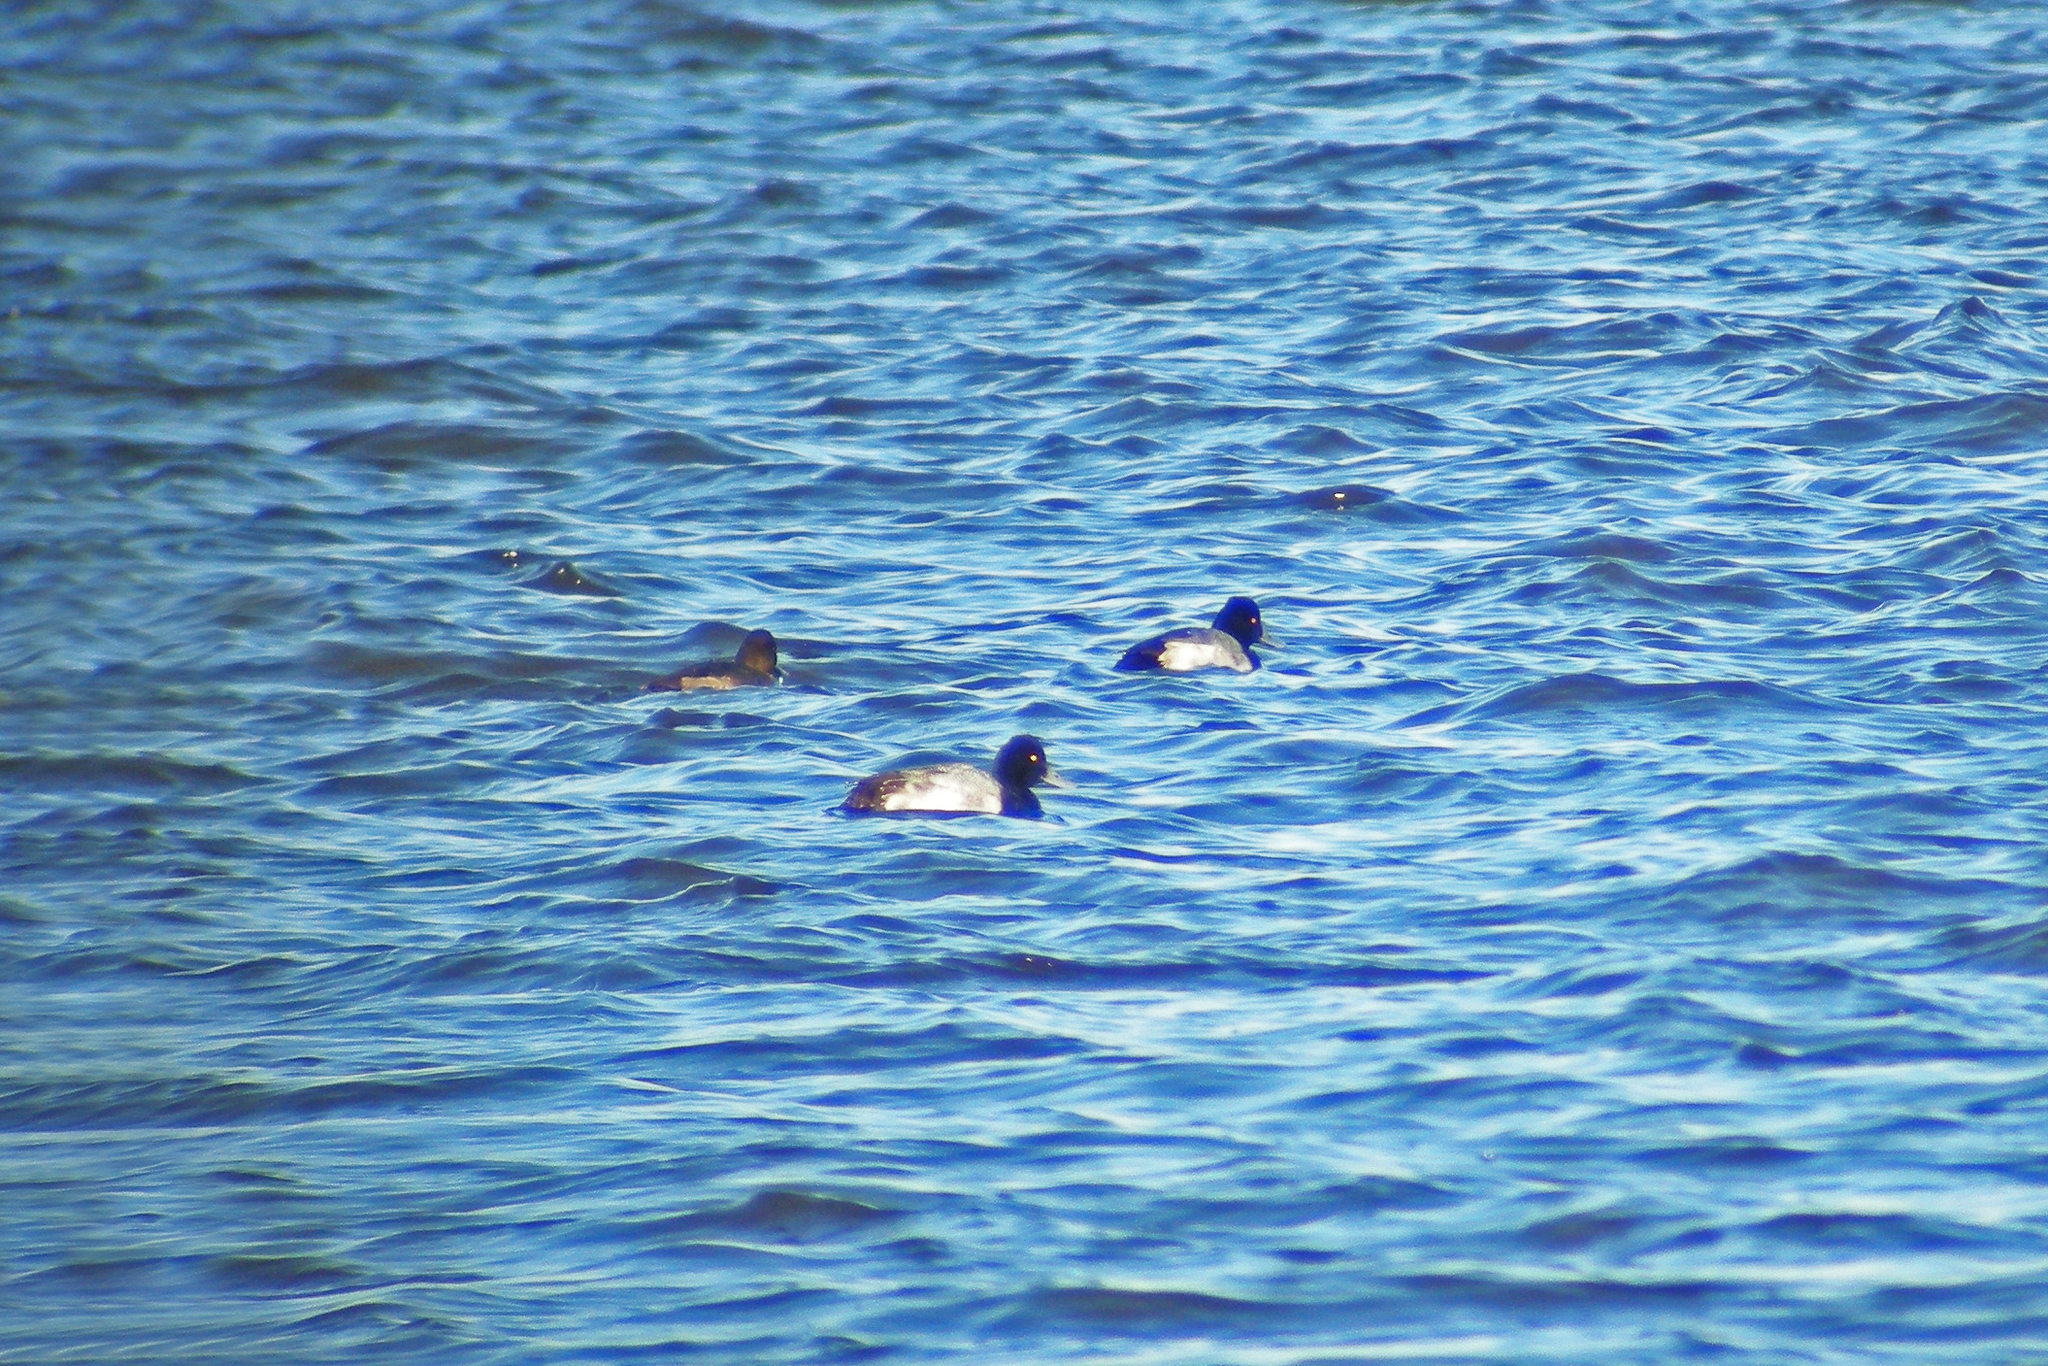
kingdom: Animalia
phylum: Chordata
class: Aves
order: Anseriformes
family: Anatidae
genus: Aythya
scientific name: Aythya affinis
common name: Lesser scaup
